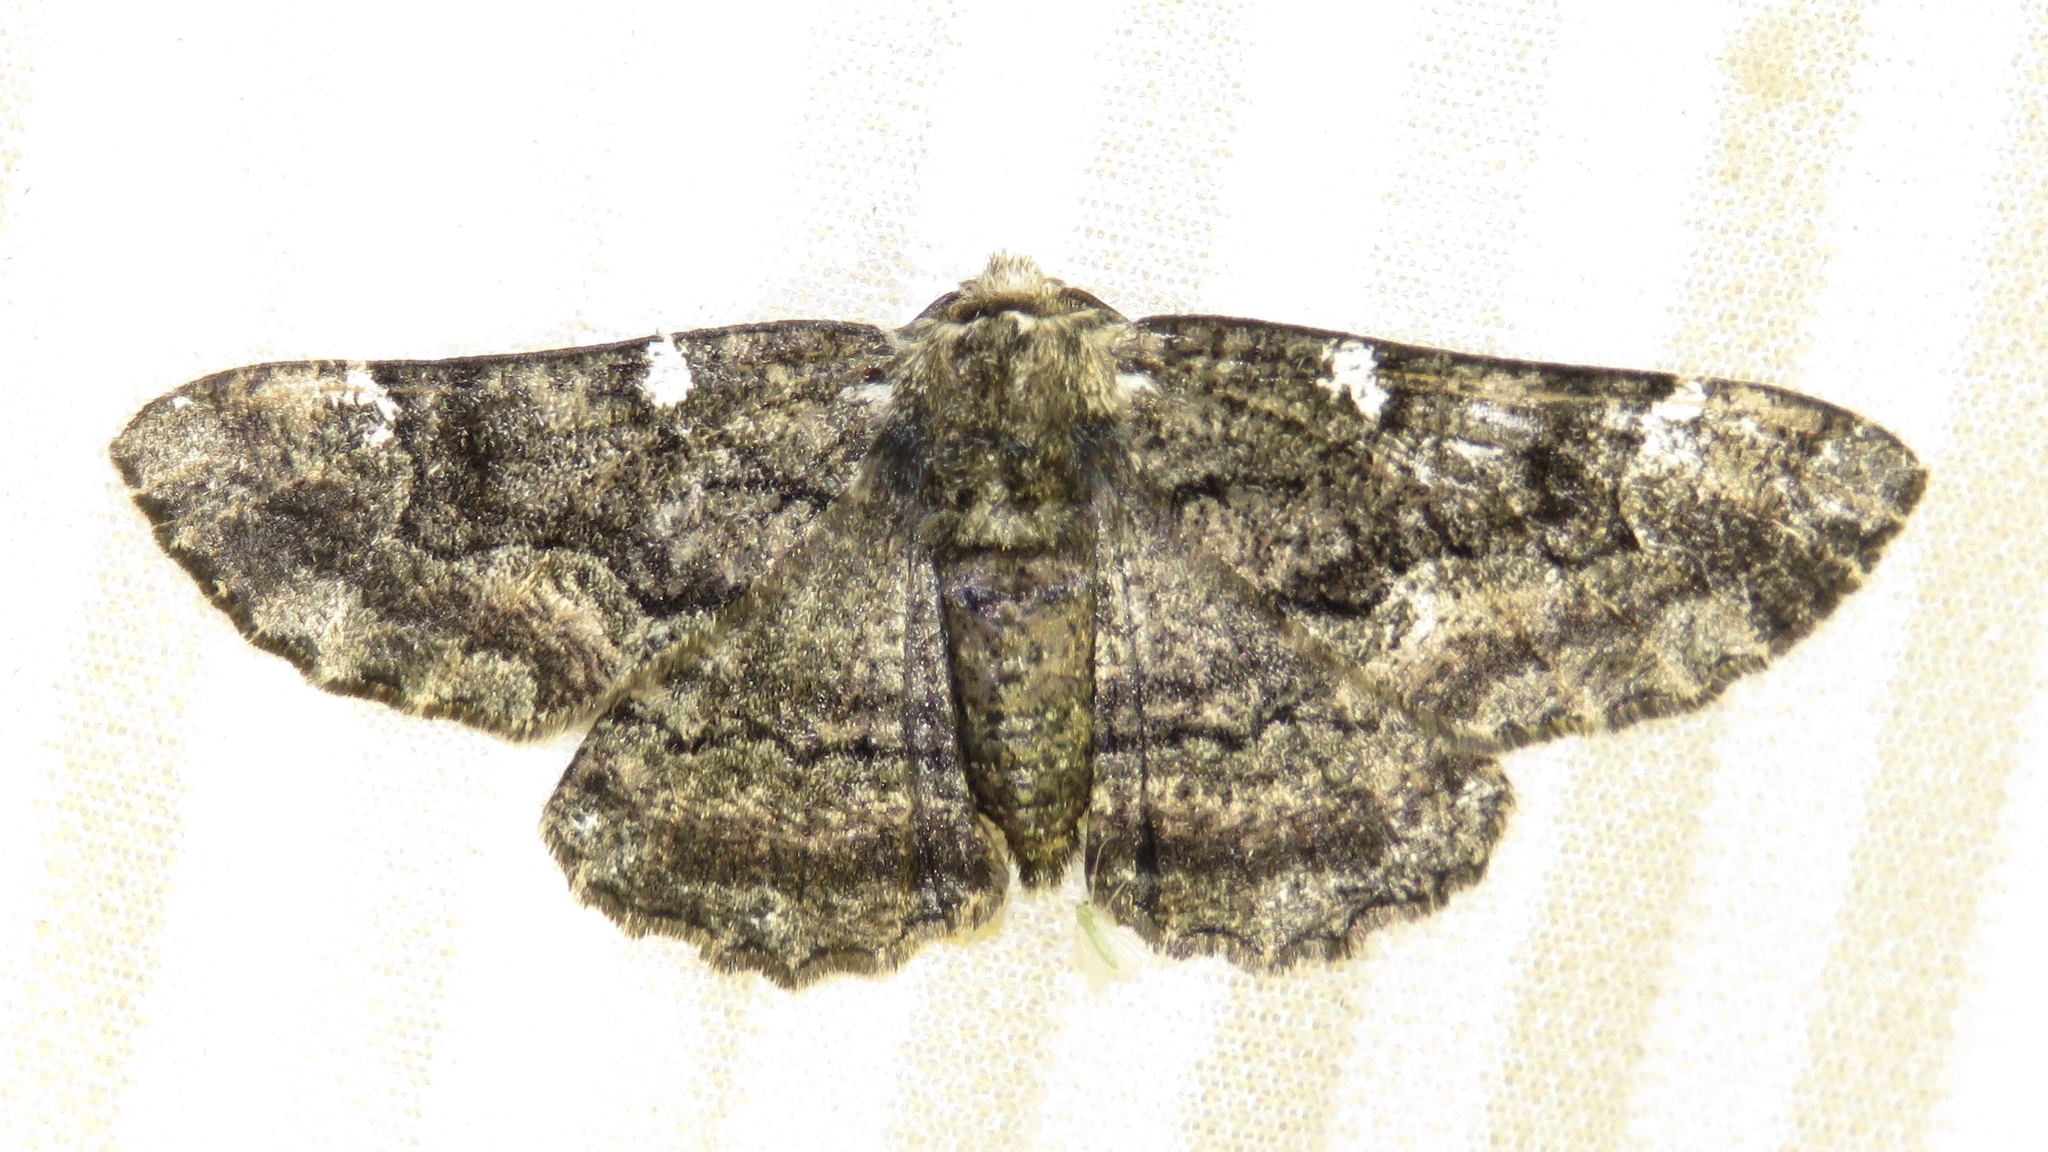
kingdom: Animalia
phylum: Arthropoda
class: Insecta
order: Lepidoptera
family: Geometridae
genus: Phaeoura
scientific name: Phaeoura quernaria
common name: Oak beauty
